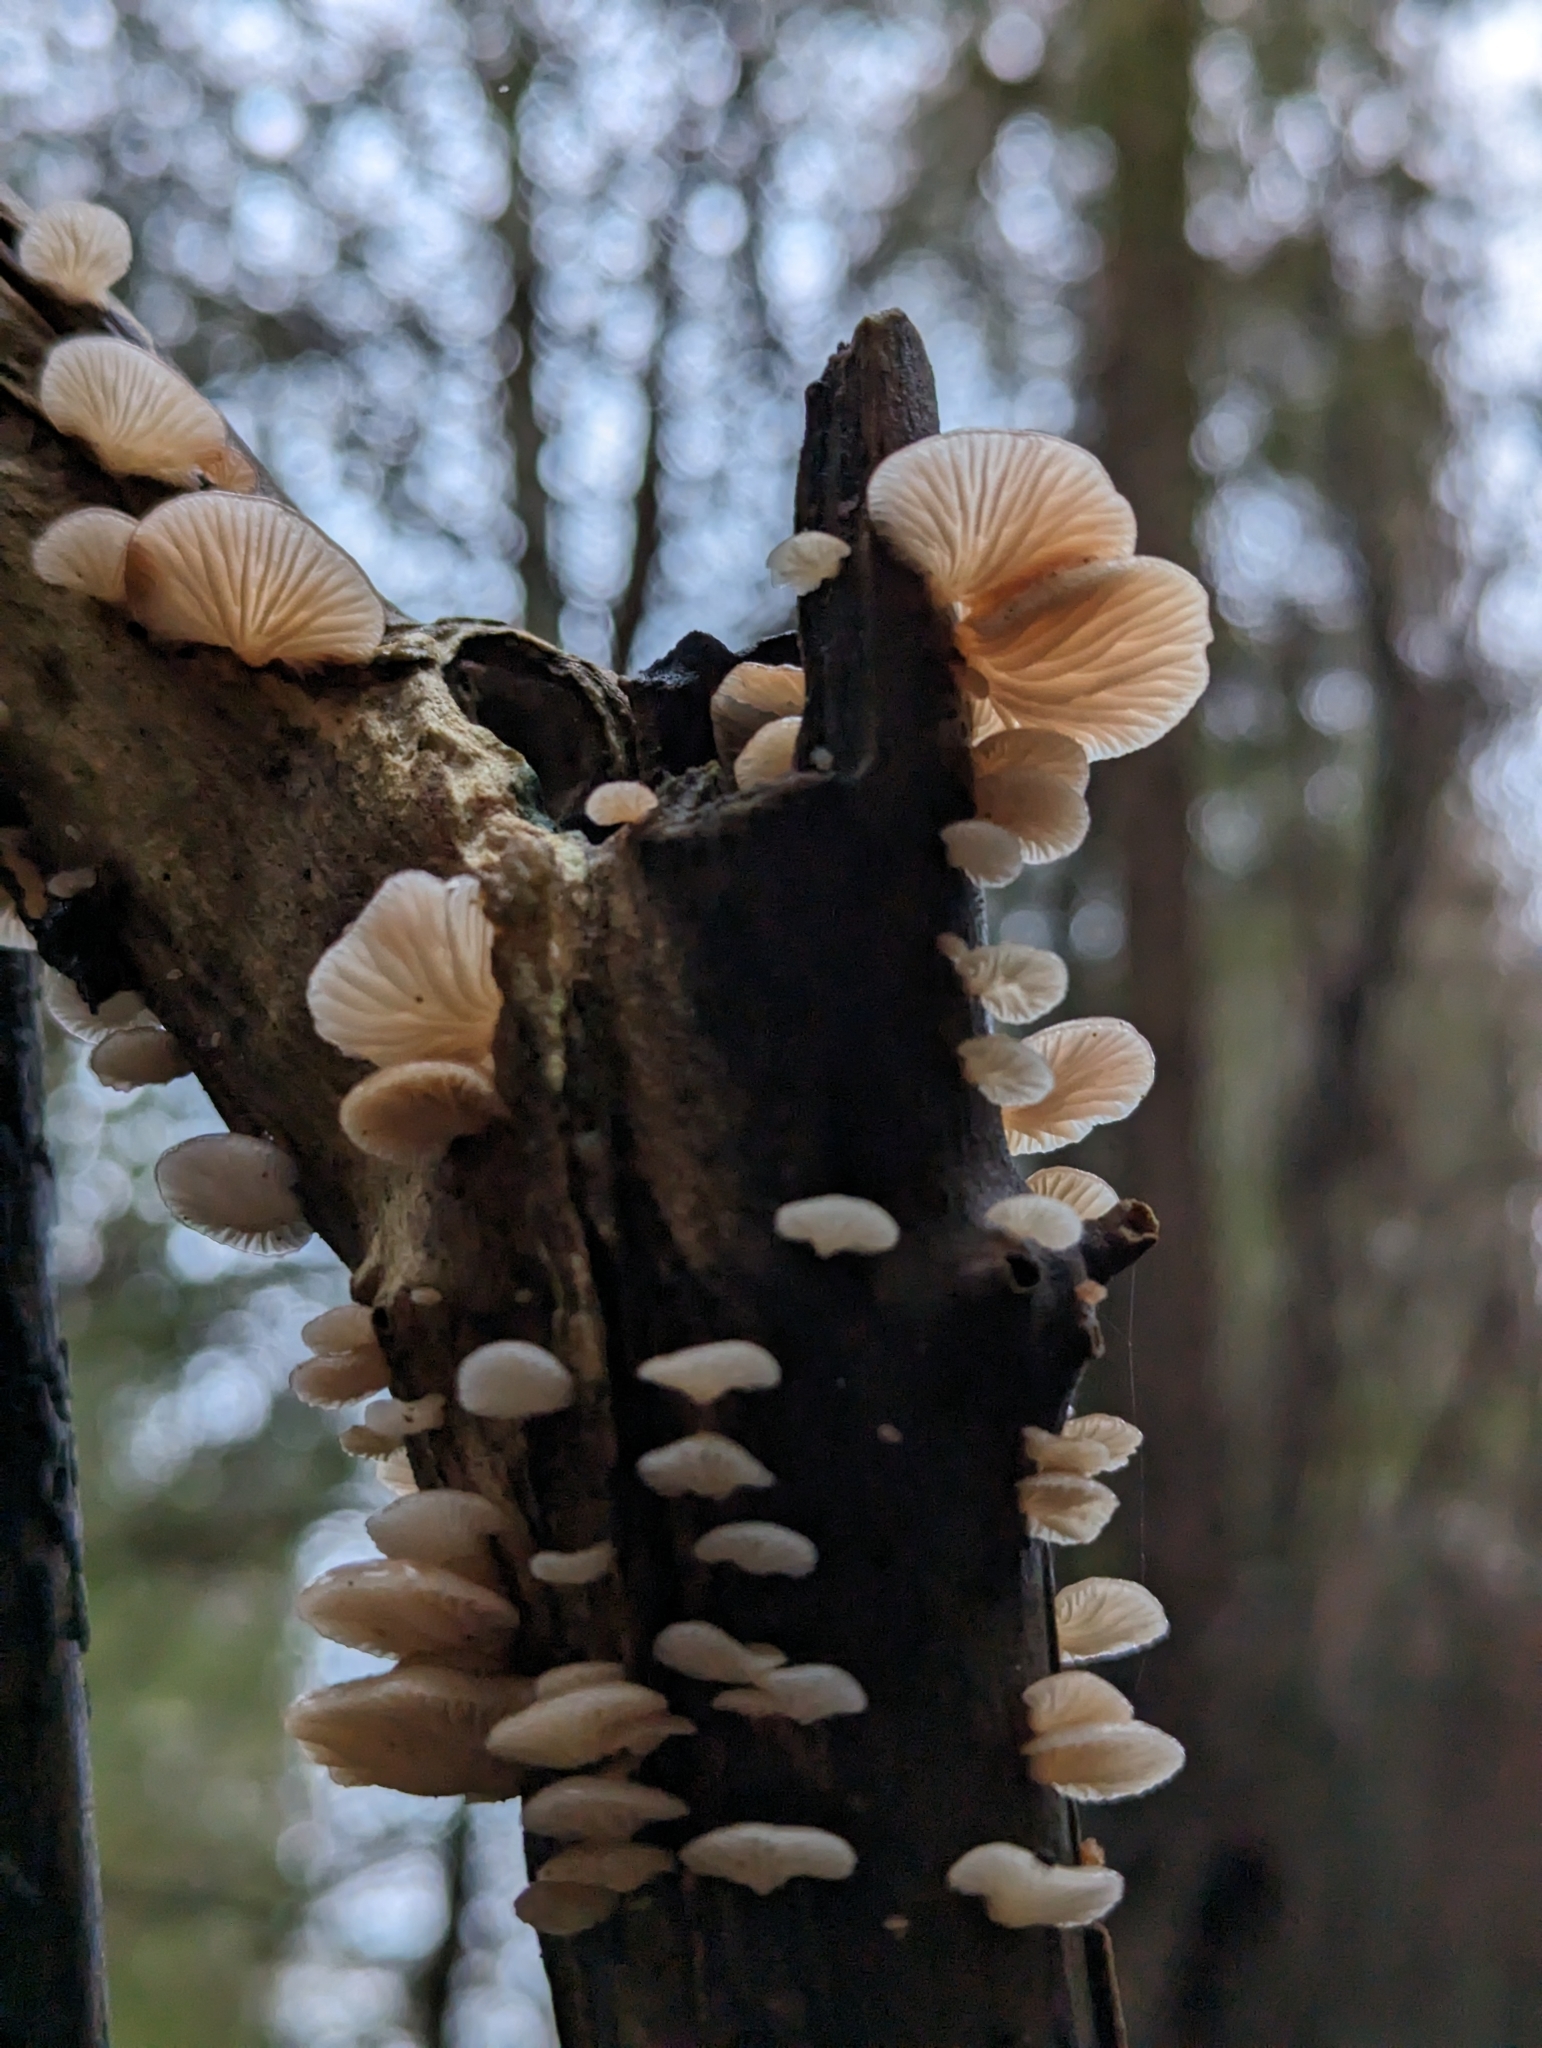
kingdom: Fungi
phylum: Basidiomycota
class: Agaricomycetes
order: Agaricales
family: Mycenaceae
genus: Panellus
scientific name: Panellus longinquus
